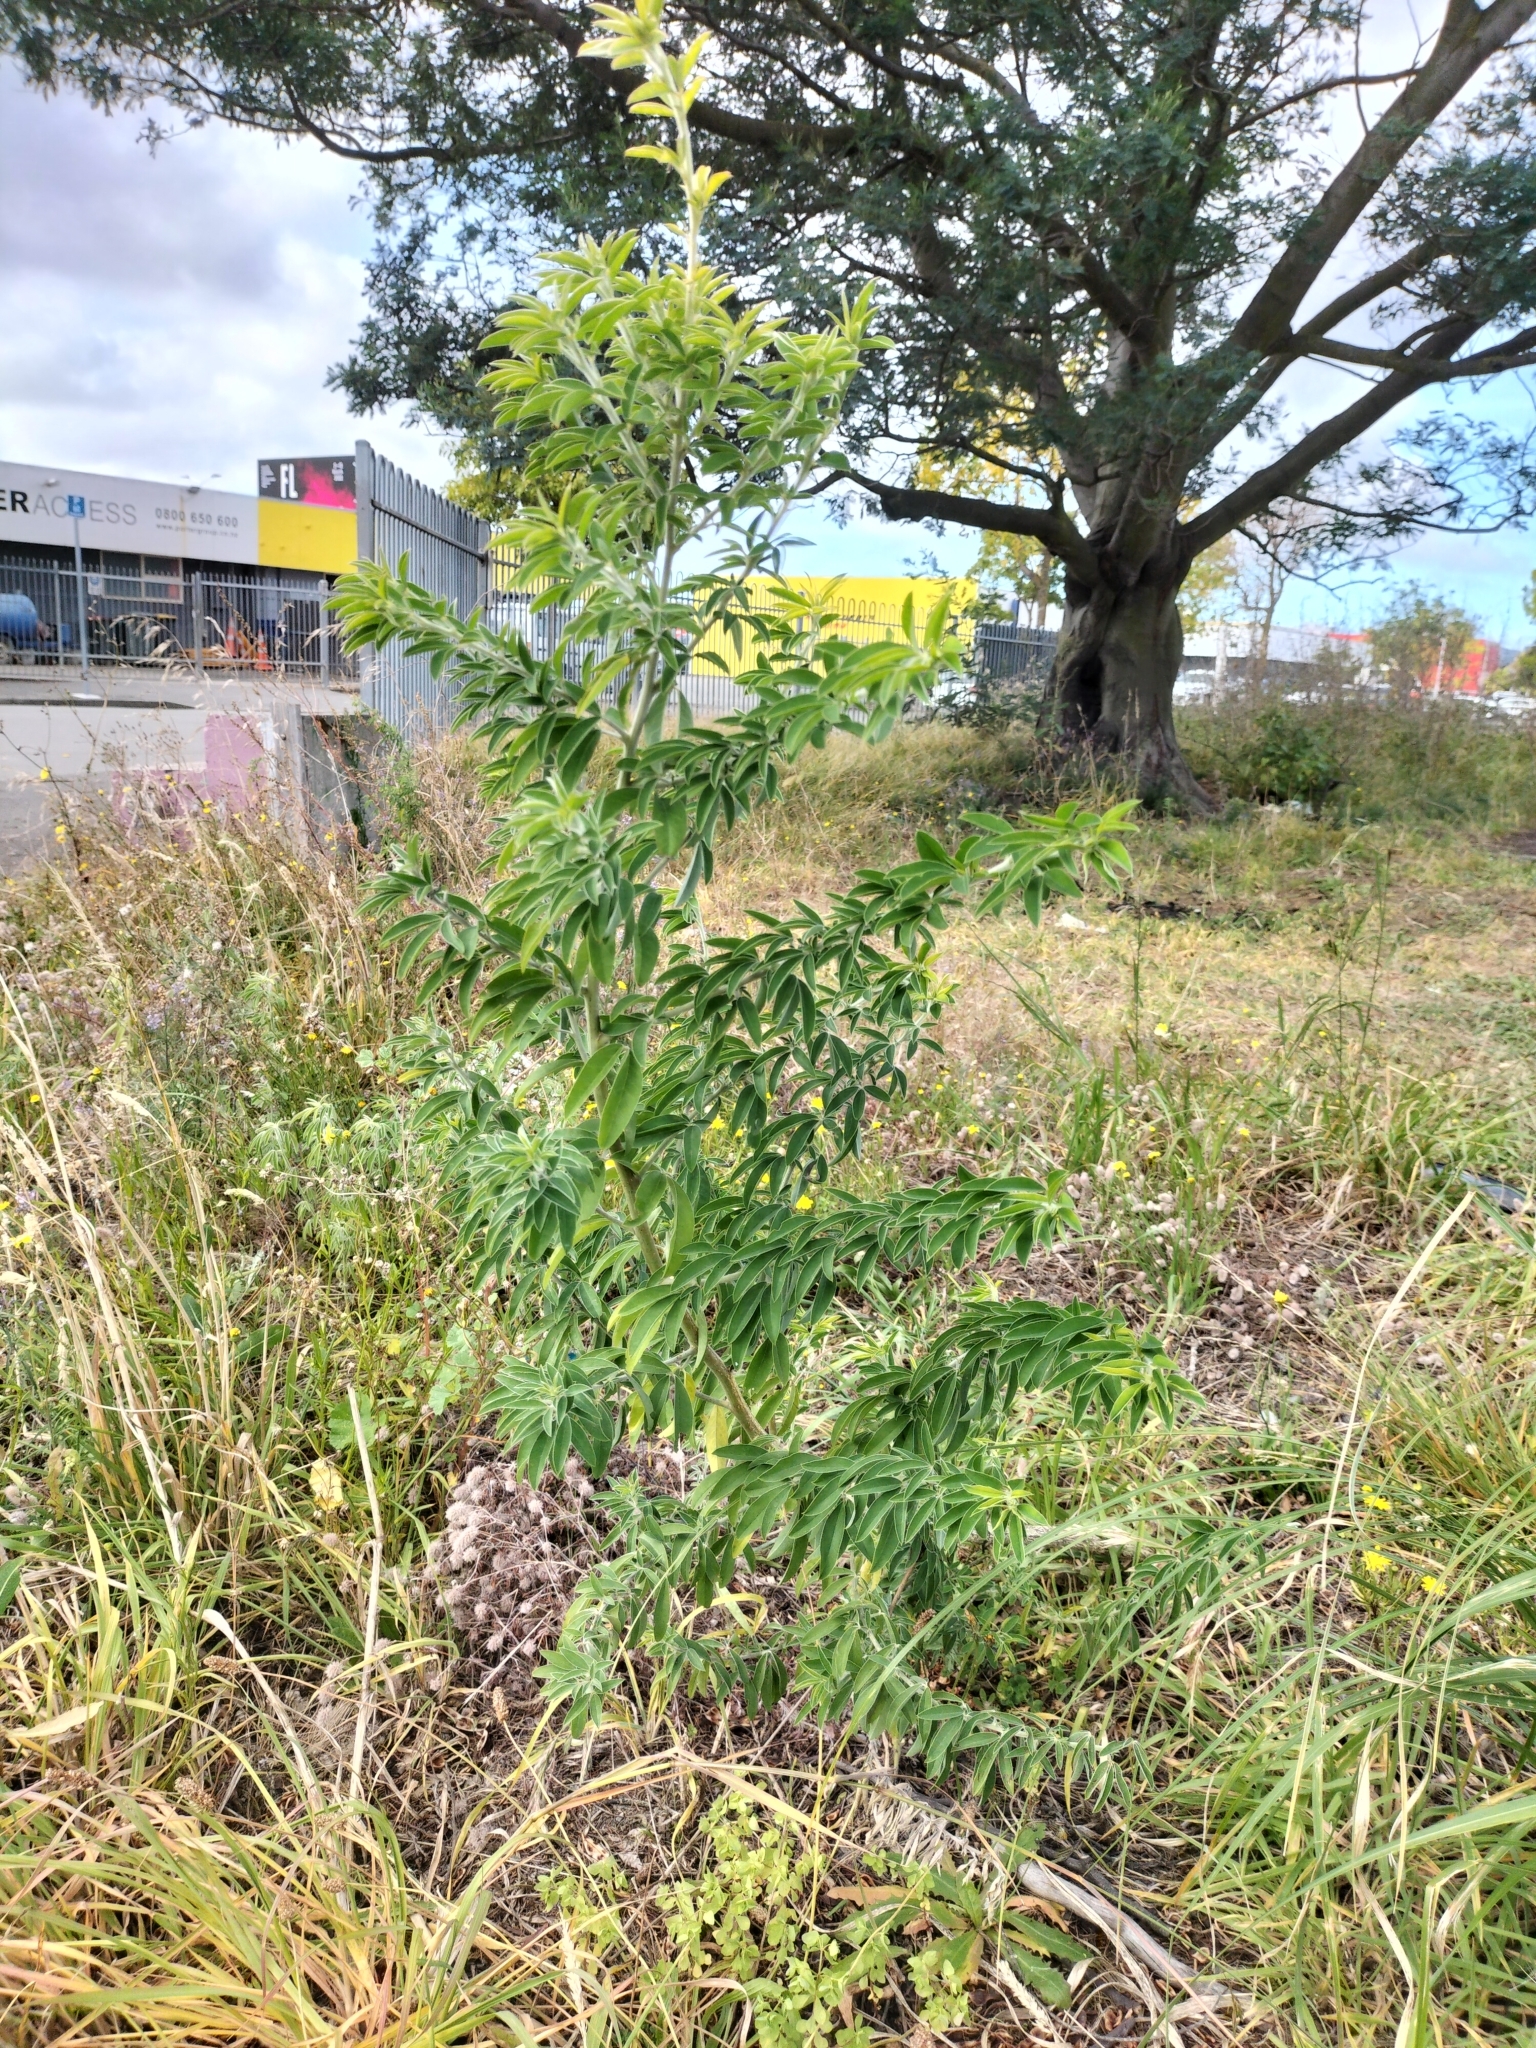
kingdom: Plantae
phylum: Tracheophyta
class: Magnoliopsida
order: Fabales
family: Fabaceae
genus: Chamaecytisus
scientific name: Chamaecytisus prolifer
